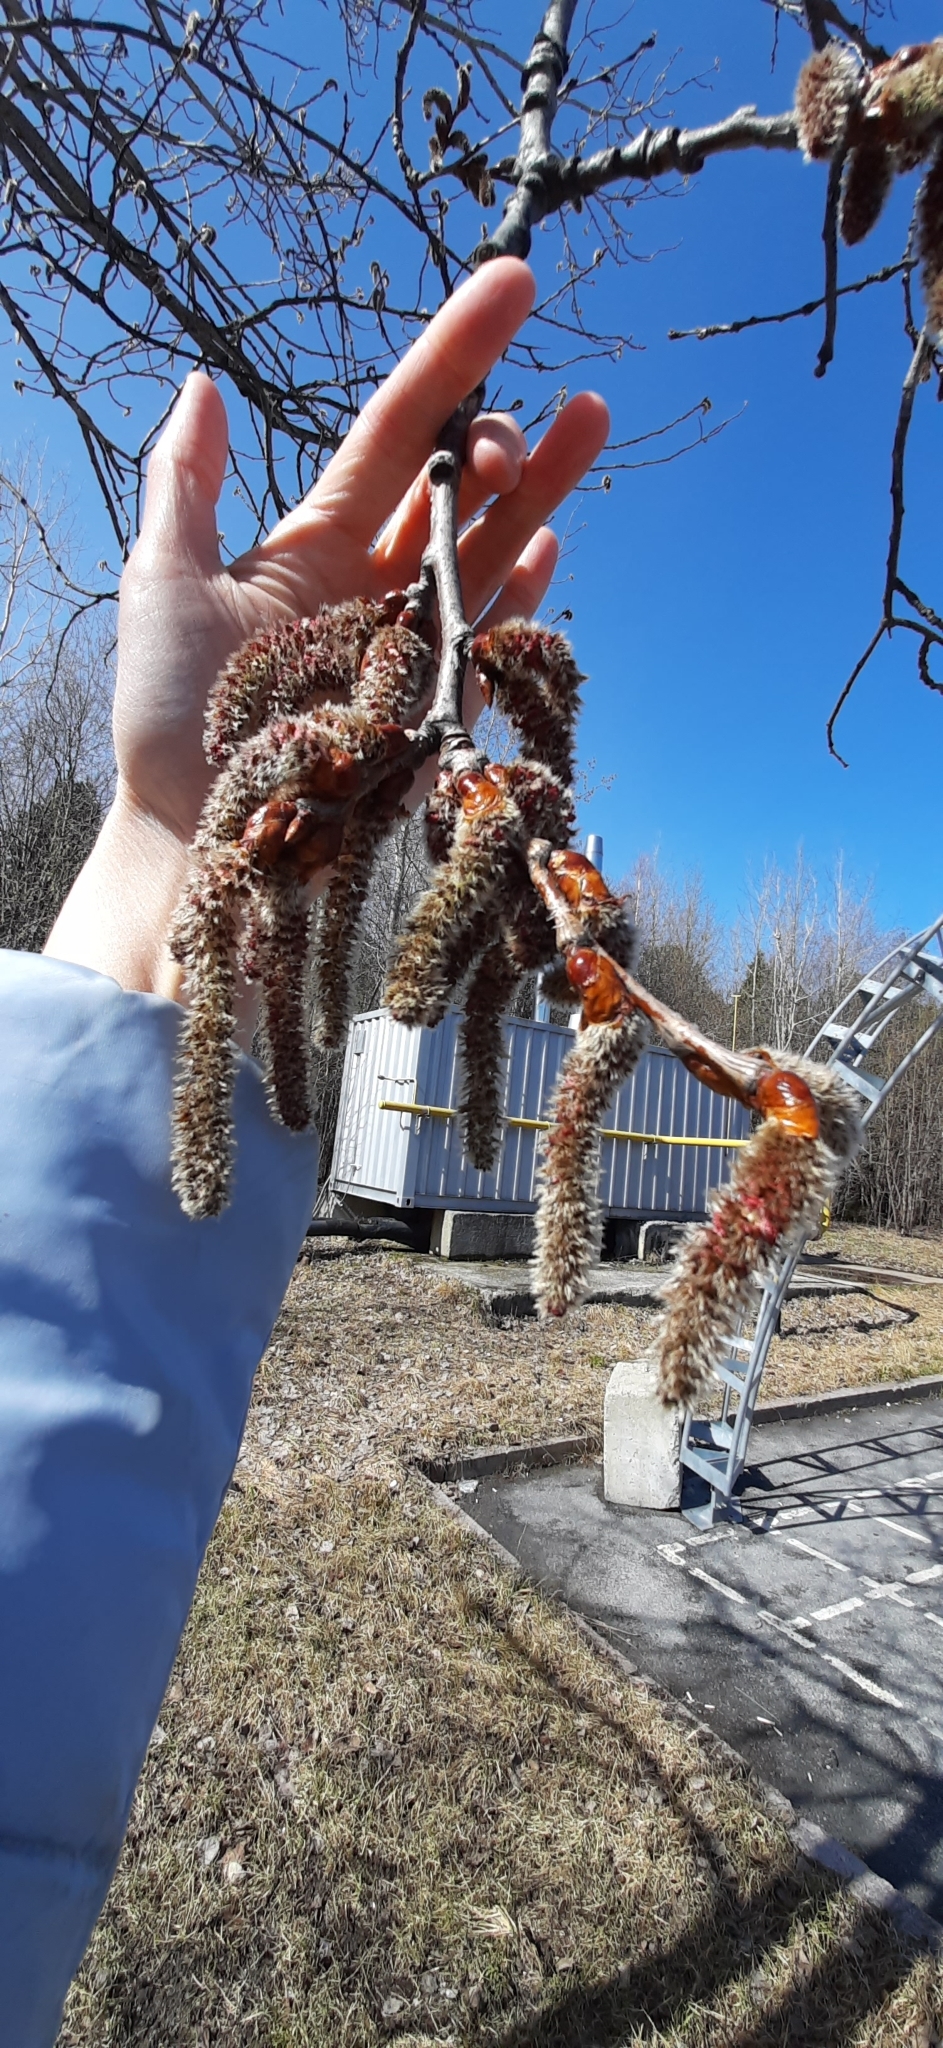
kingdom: Plantae
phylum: Tracheophyta
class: Magnoliopsida
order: Malpighiales
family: Salicaceae
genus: Populus
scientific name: Populus tremula
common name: European aspen
